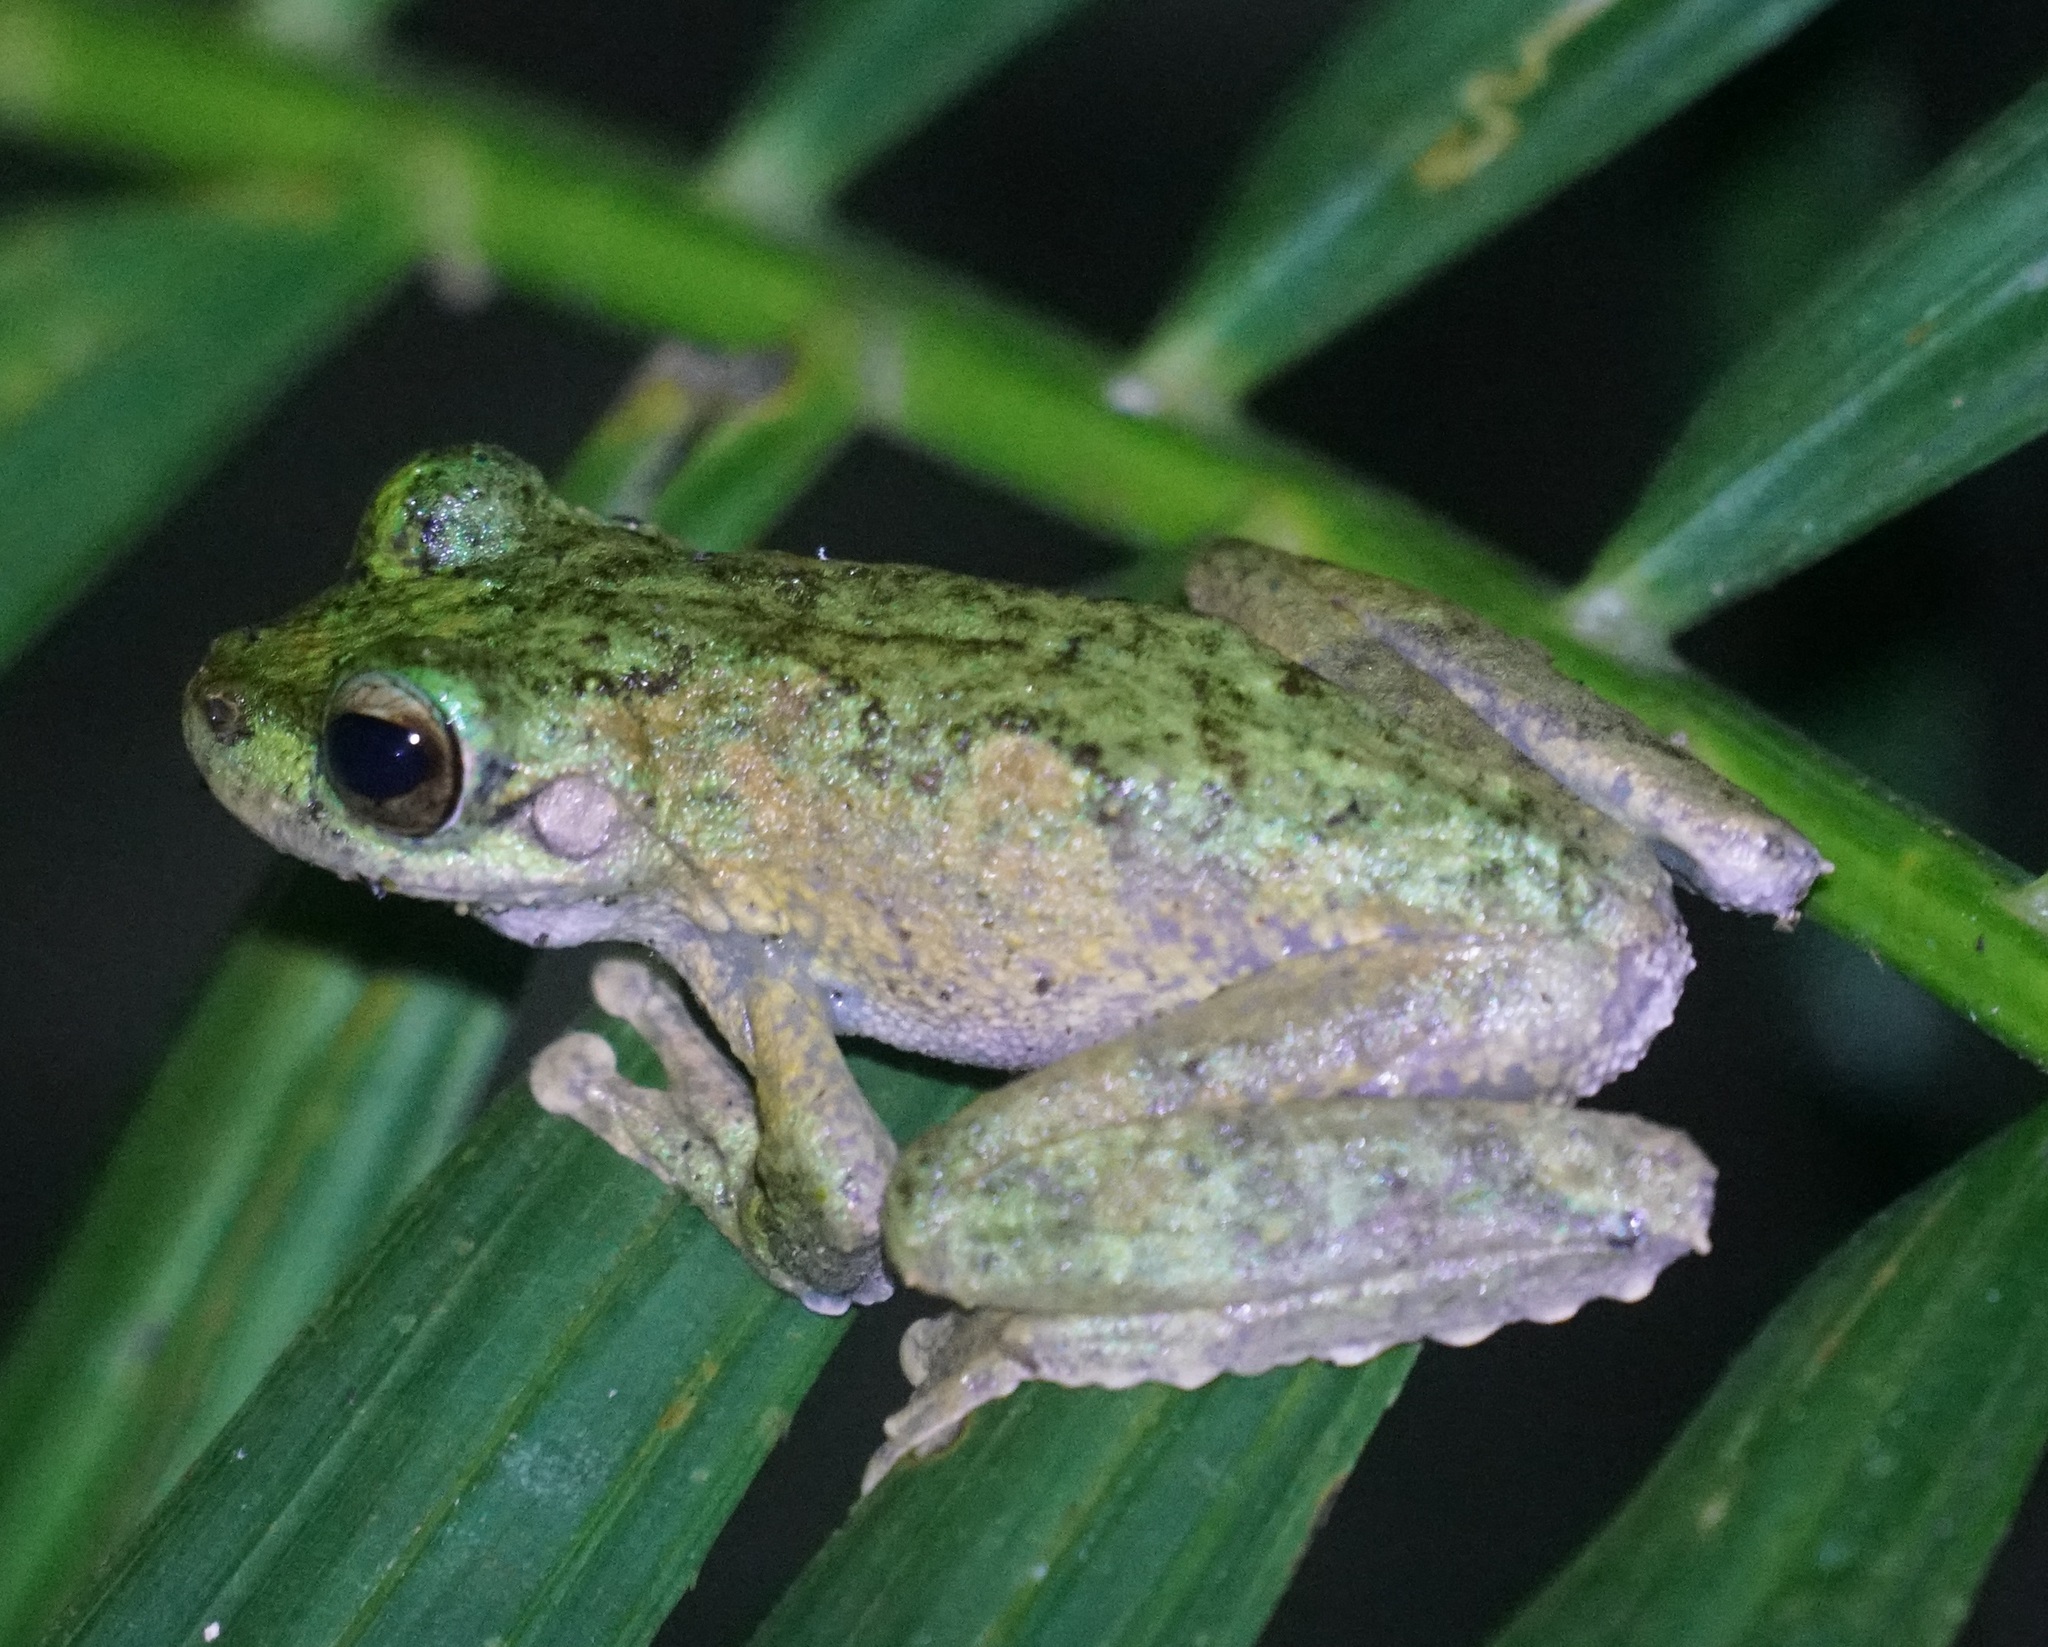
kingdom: Animalia
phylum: Chordata
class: Amphibia
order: Anura
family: Pelodryadidae
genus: Ranoidea
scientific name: Ranoidea serrata
